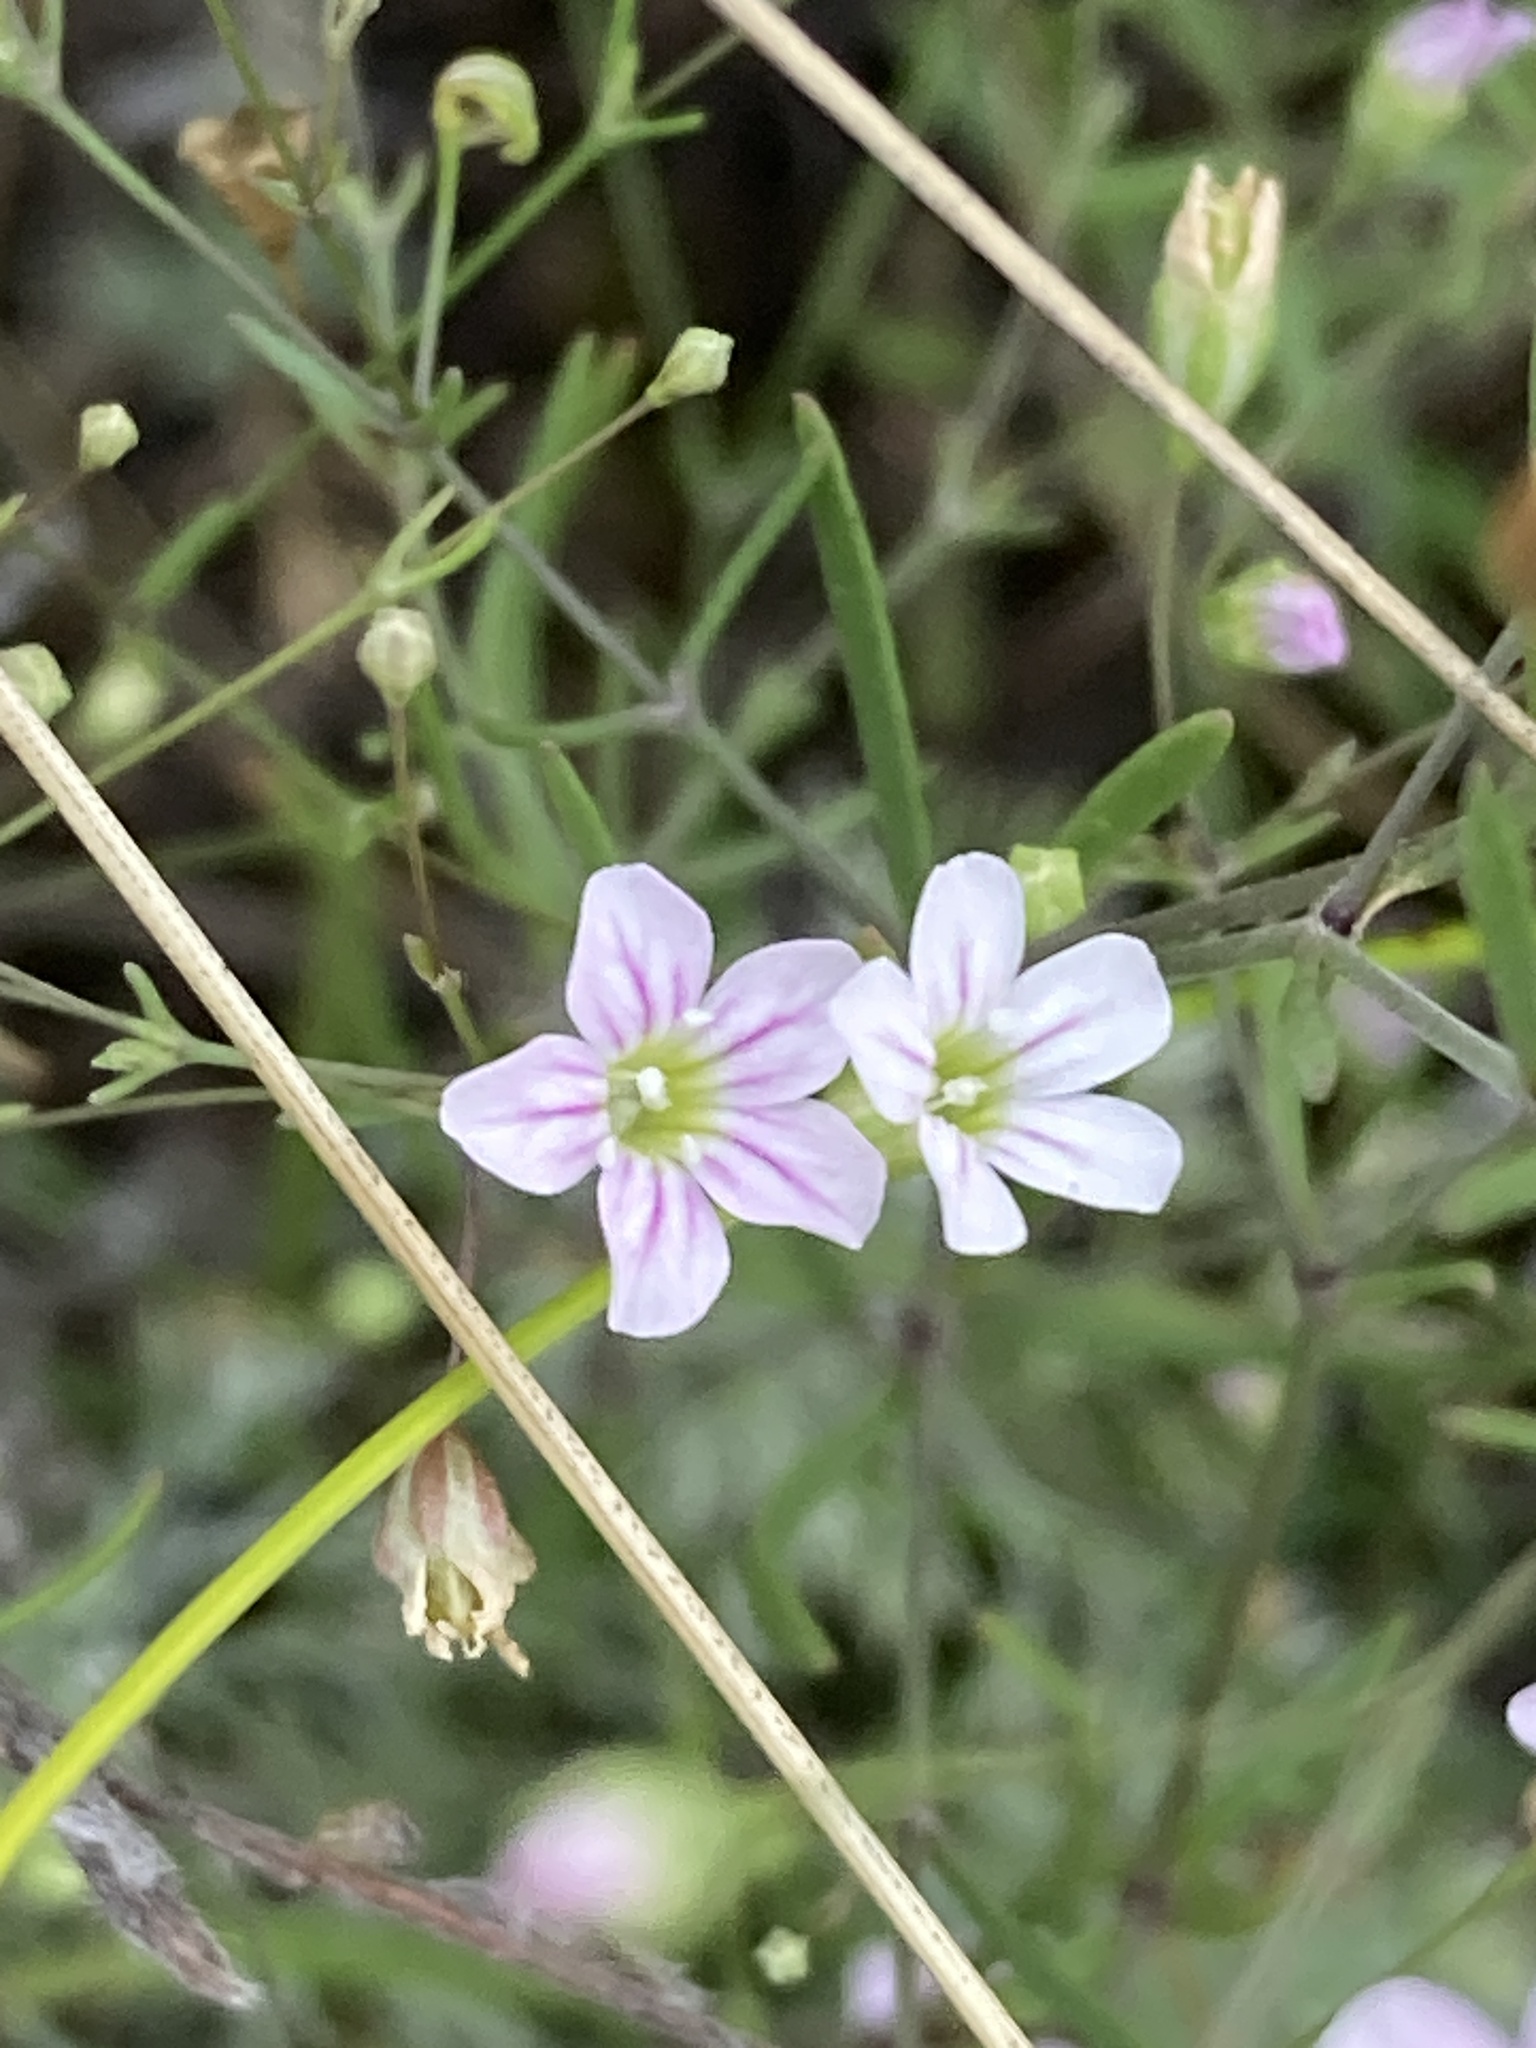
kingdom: Plantae
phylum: Tracheophyta
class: Magnoliopsida
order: Caryophyllales
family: Caryophyllaceae
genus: Psammophiliella
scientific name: Psammophiliella muralis
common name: Cushion baby's-breath
